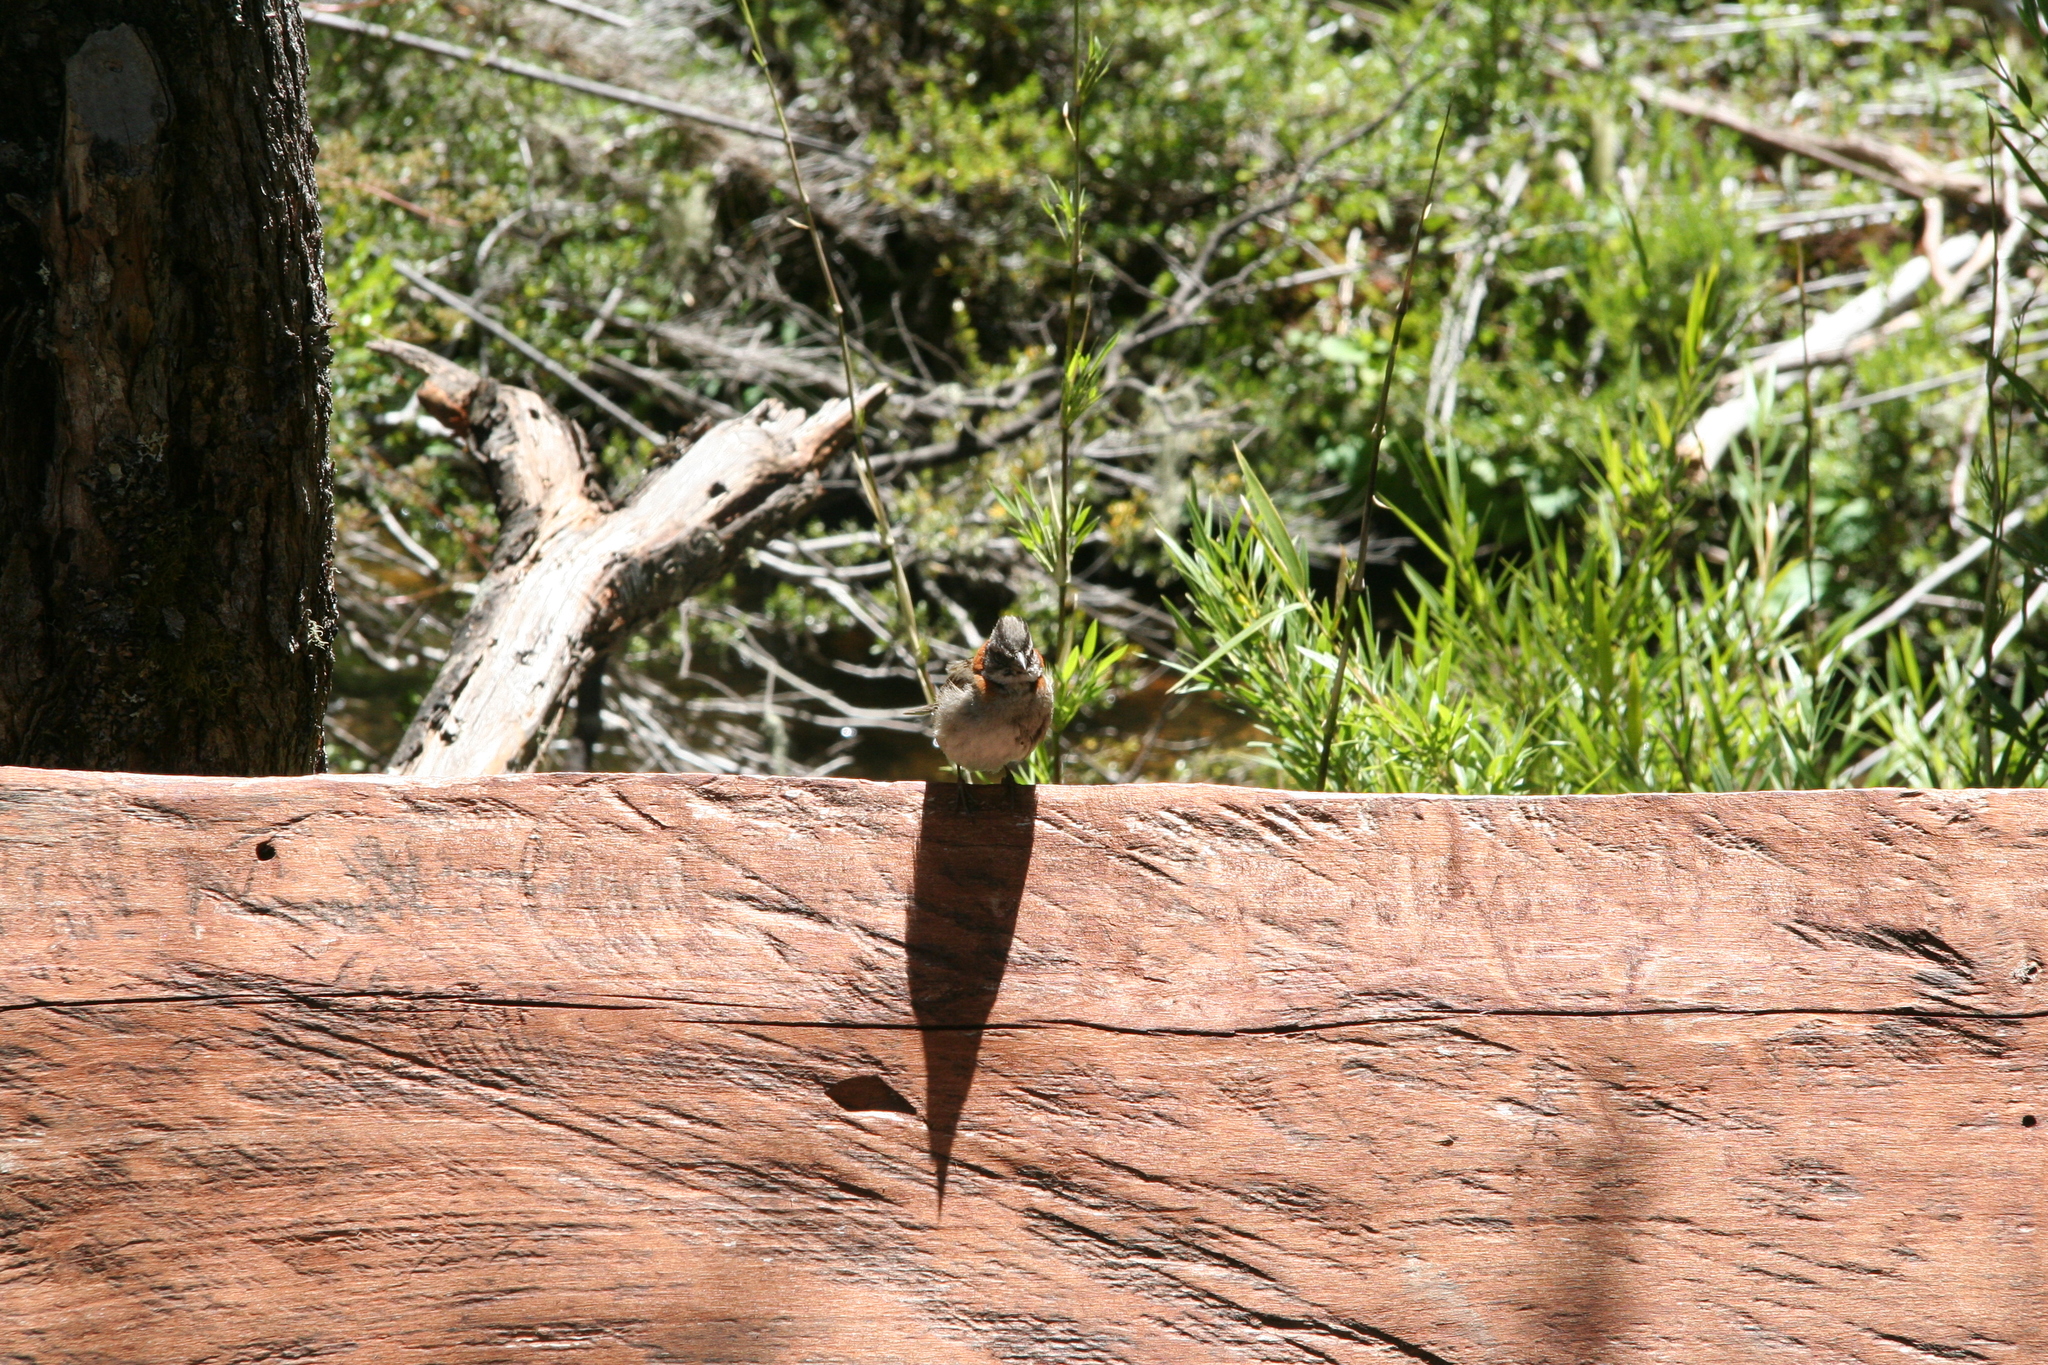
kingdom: Animalia
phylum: Chordata
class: Aves
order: Passeriformes
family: Passerellidae
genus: Zonotrichia
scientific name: Zonotrichia capensis
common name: Rufous-collared sparrow
